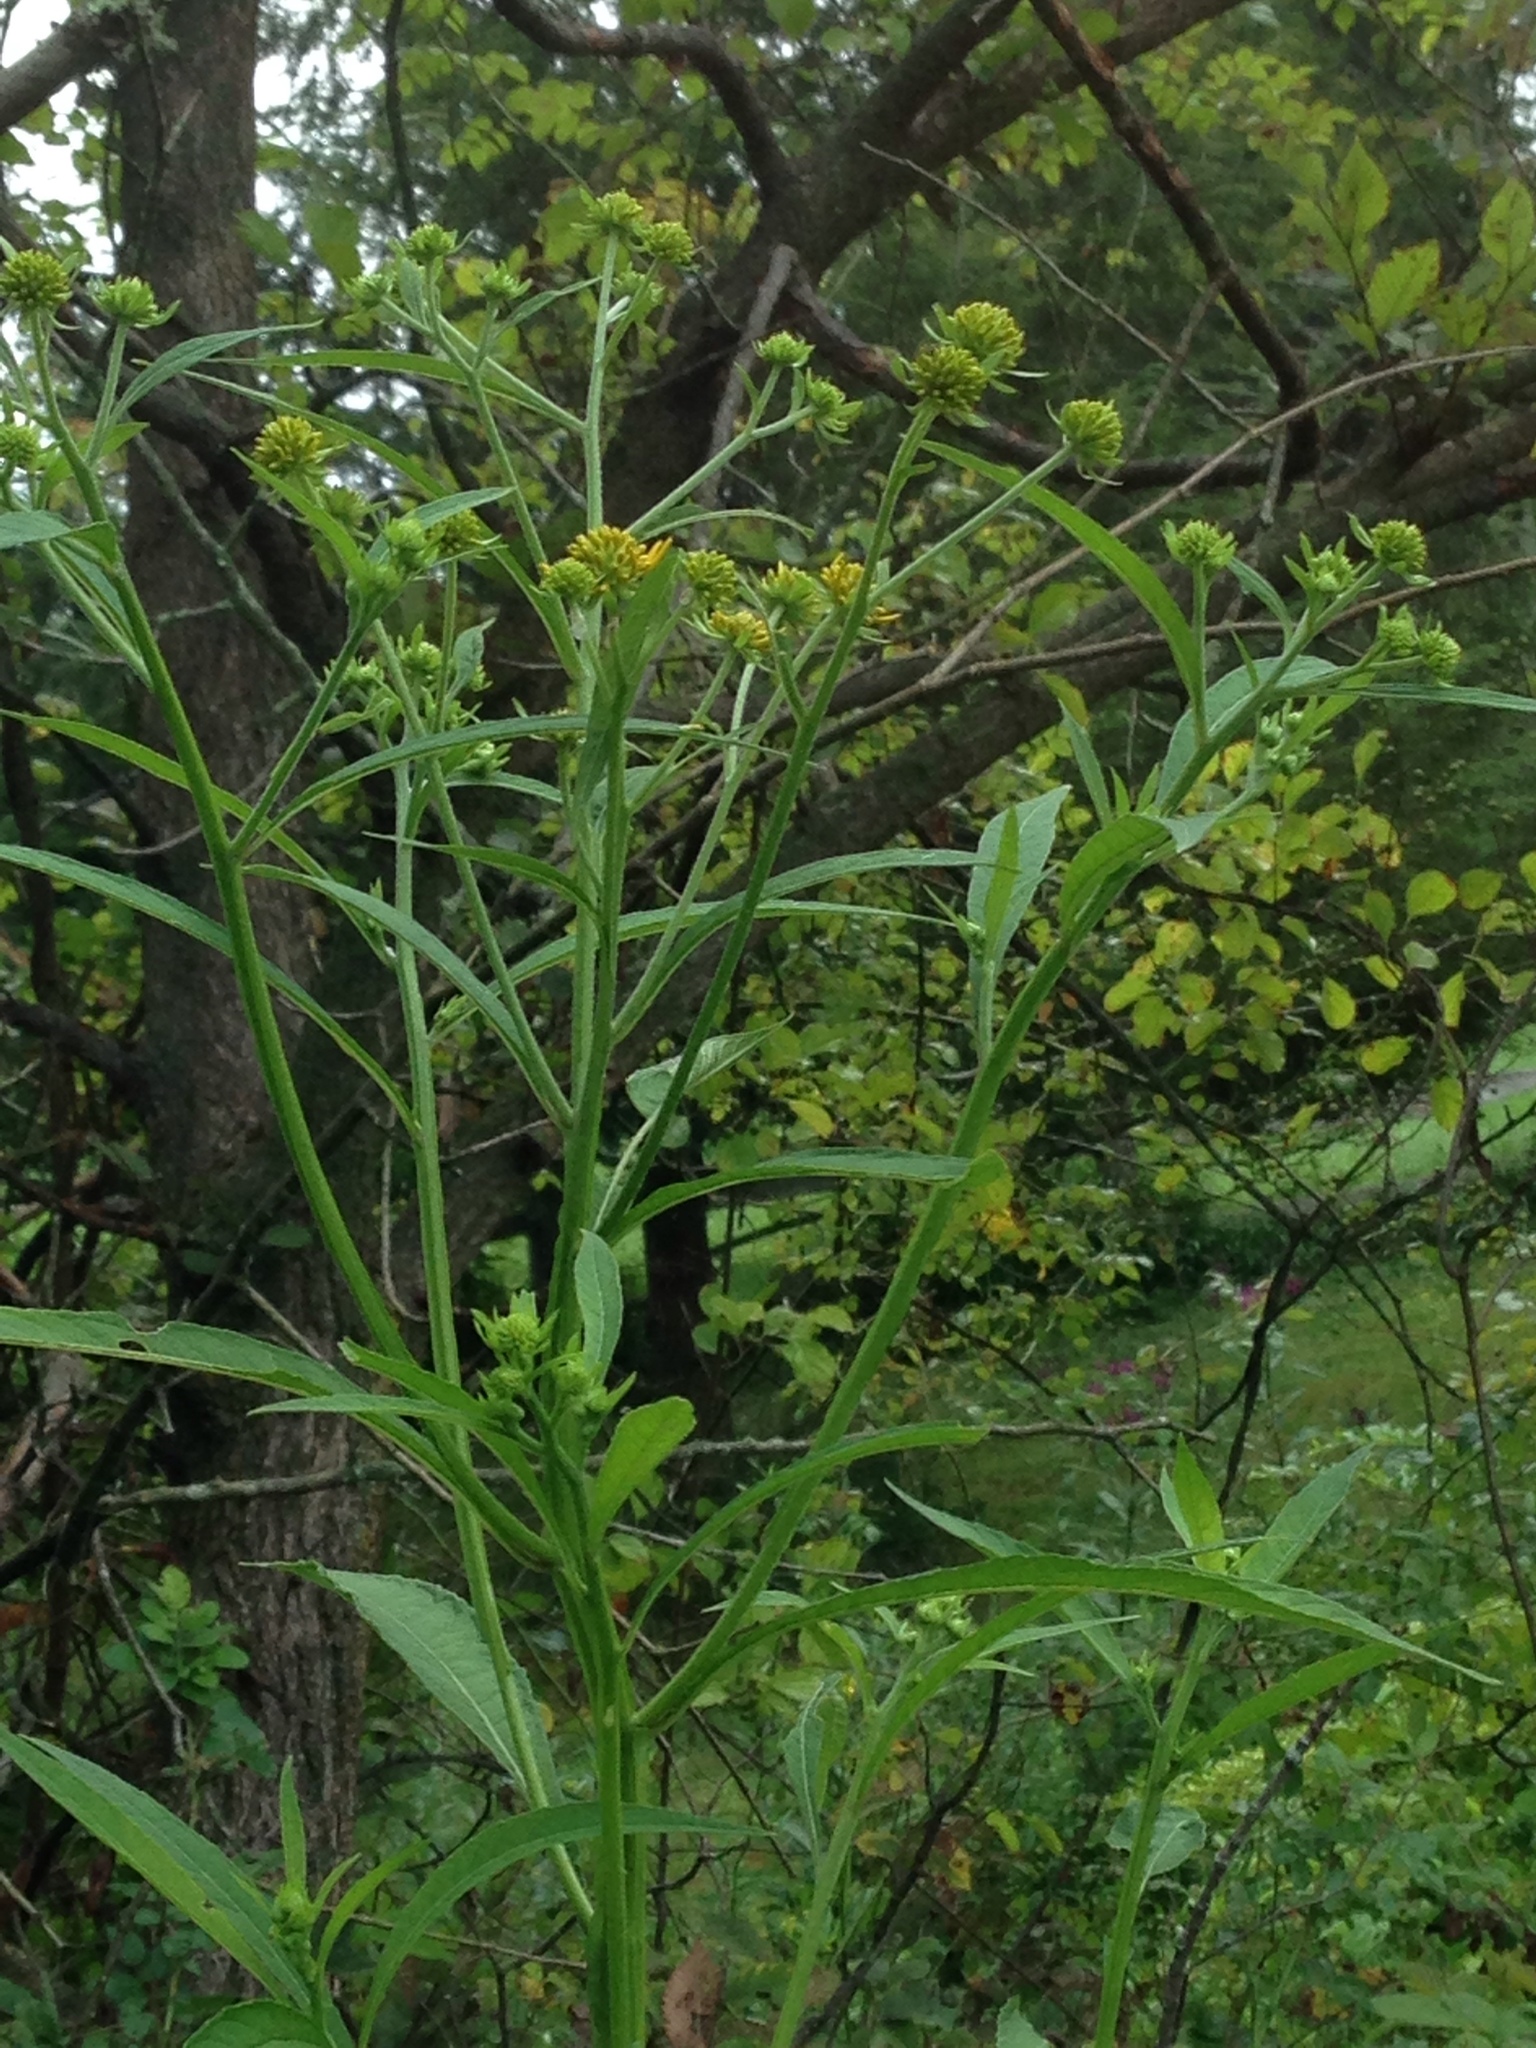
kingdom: Plantae
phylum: Tracheophyta
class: Magnoliopsida
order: Asterales
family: Asteraceae
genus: Verbesina
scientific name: Verbesina alternifolia
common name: Wingstem
